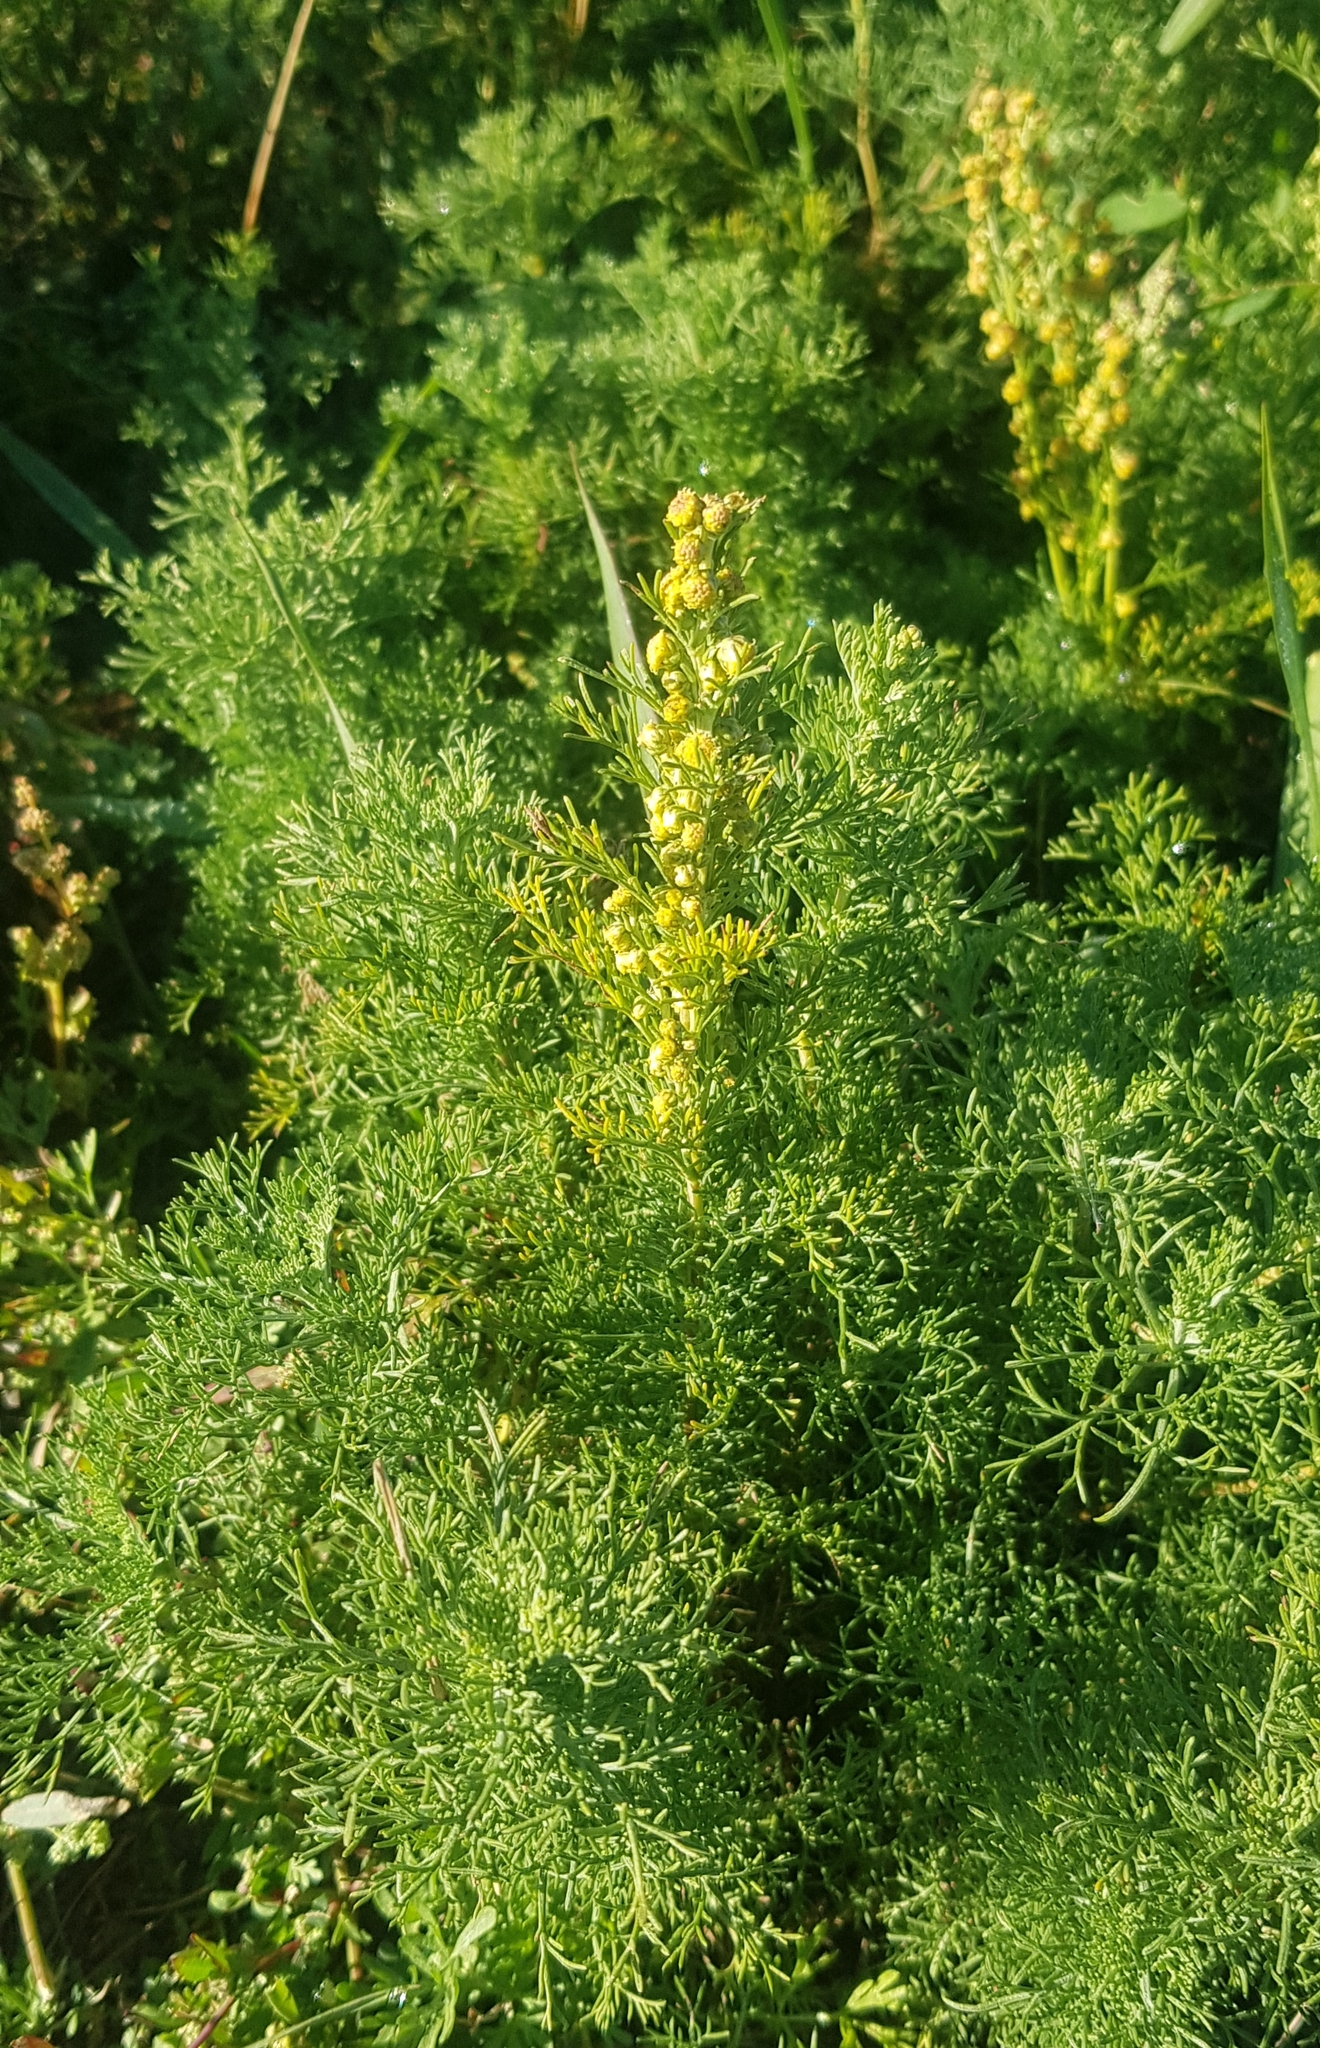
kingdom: Plantae
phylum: Tracheophyta
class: Magnoliopsida
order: Asterales
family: Asteraceae
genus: Artemisia
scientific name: Artemisia adamsii
